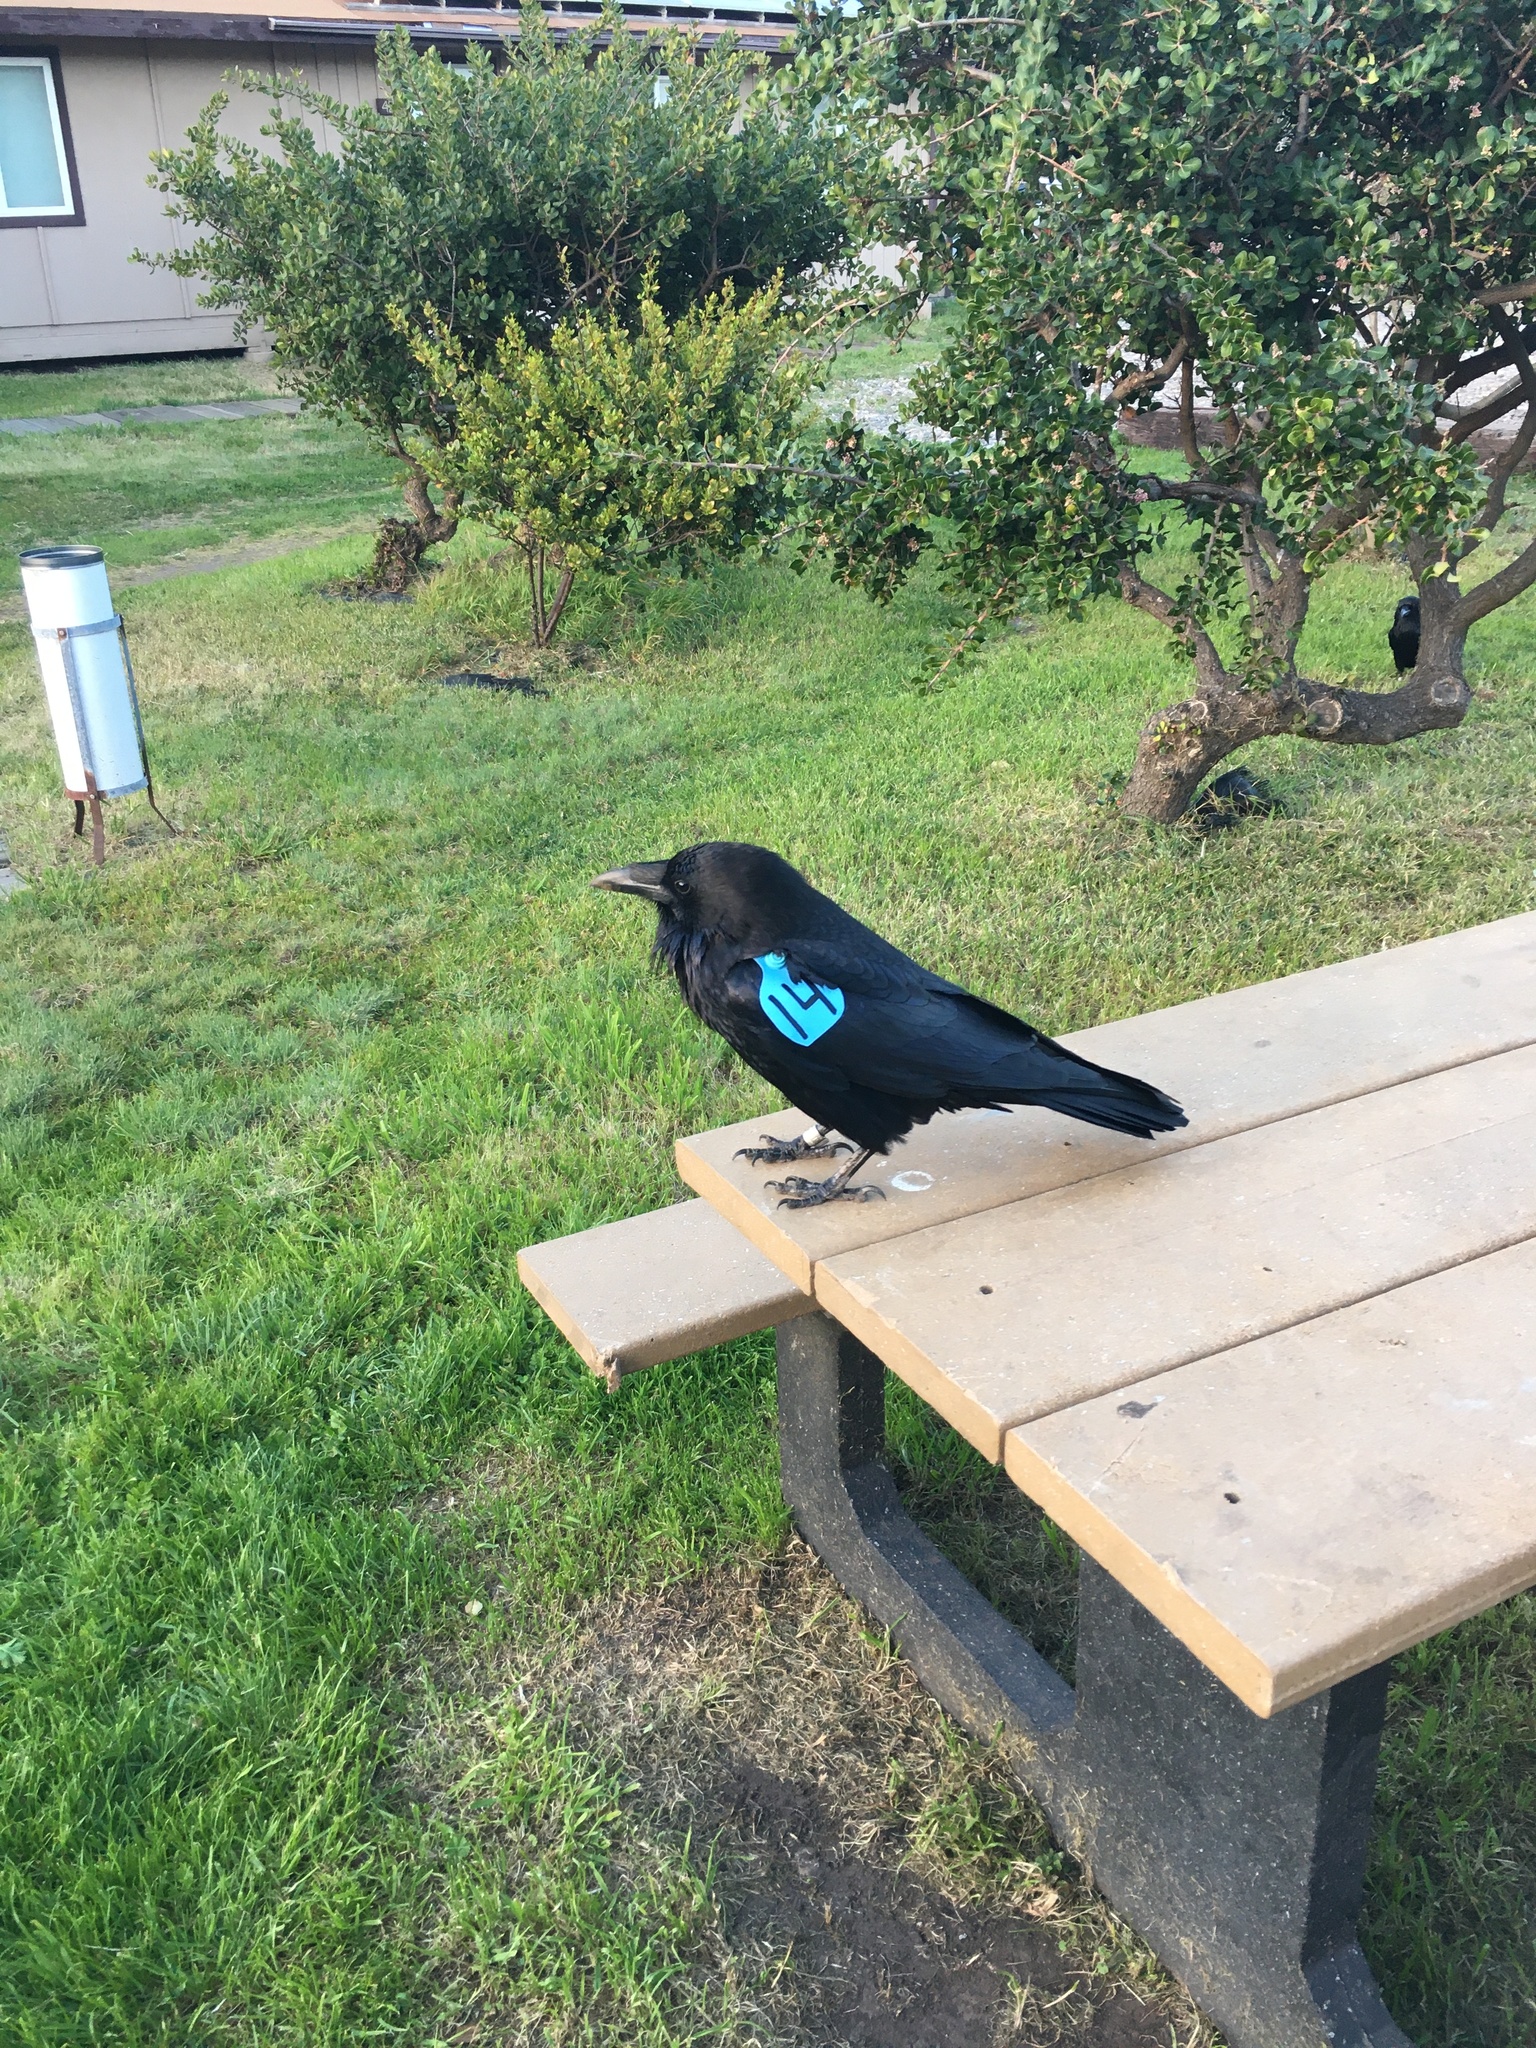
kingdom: Animalia
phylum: Chordata
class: Aves
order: Passeriformes
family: Corvidae
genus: Corvus
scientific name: Corvus corax
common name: Common raven
